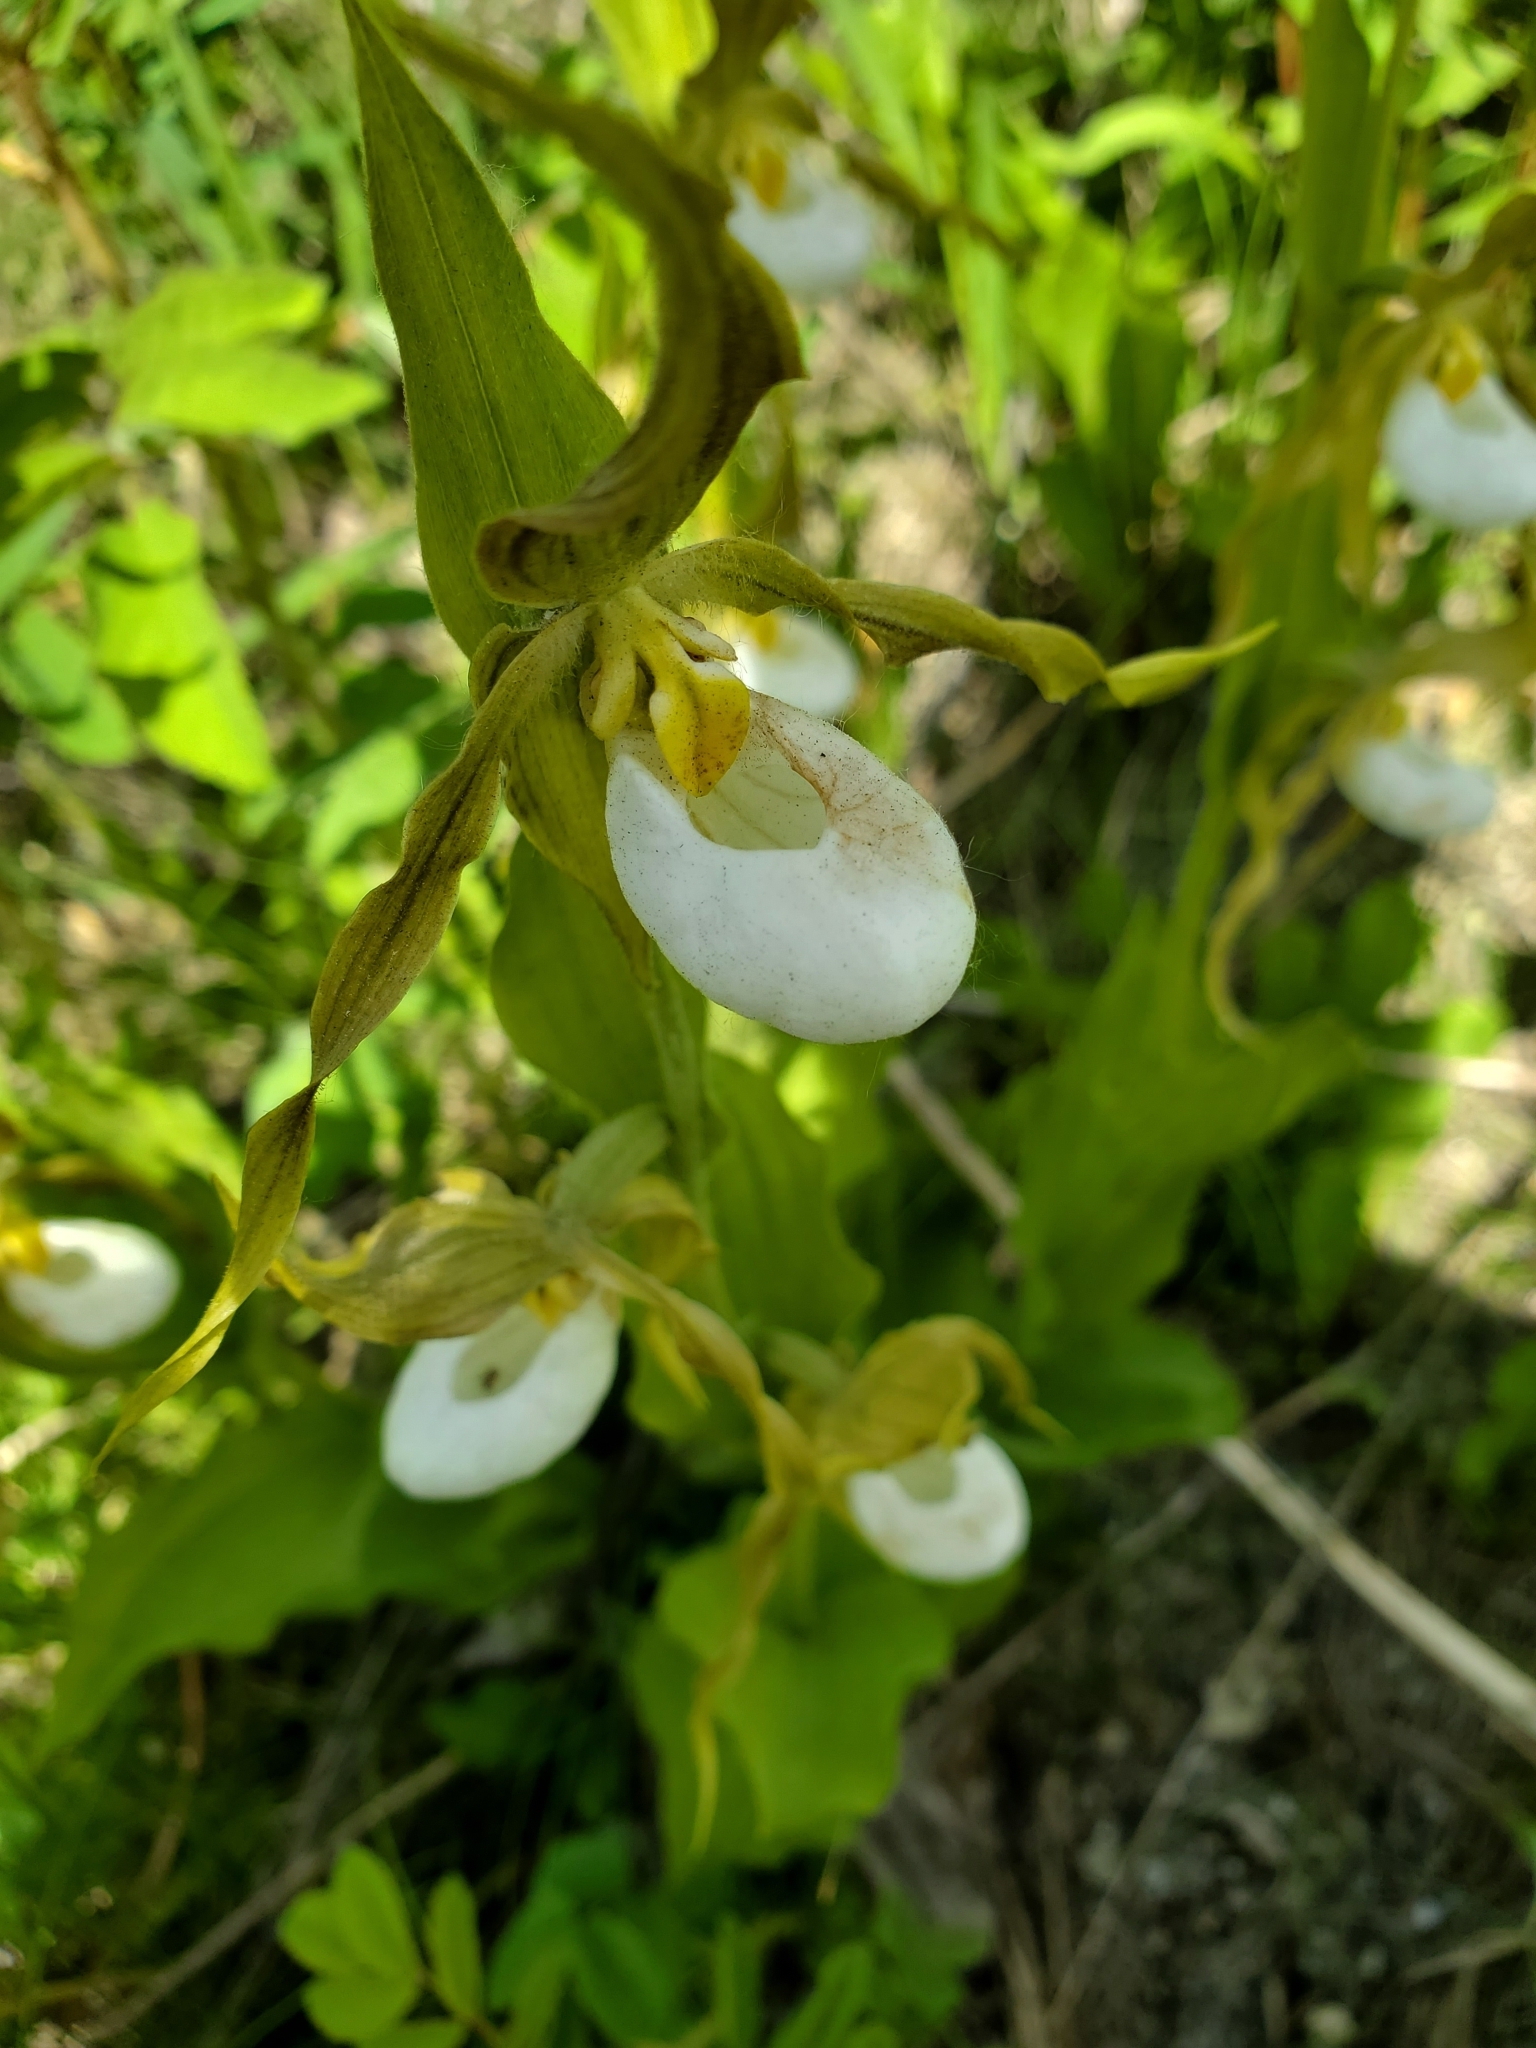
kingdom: Plantae
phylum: Tracheophyta
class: Liliopsida
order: Asparagales
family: Orchidaceae
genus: Cypripedium
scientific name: Cypripedium montanum
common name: Mountain lady's-slipper
